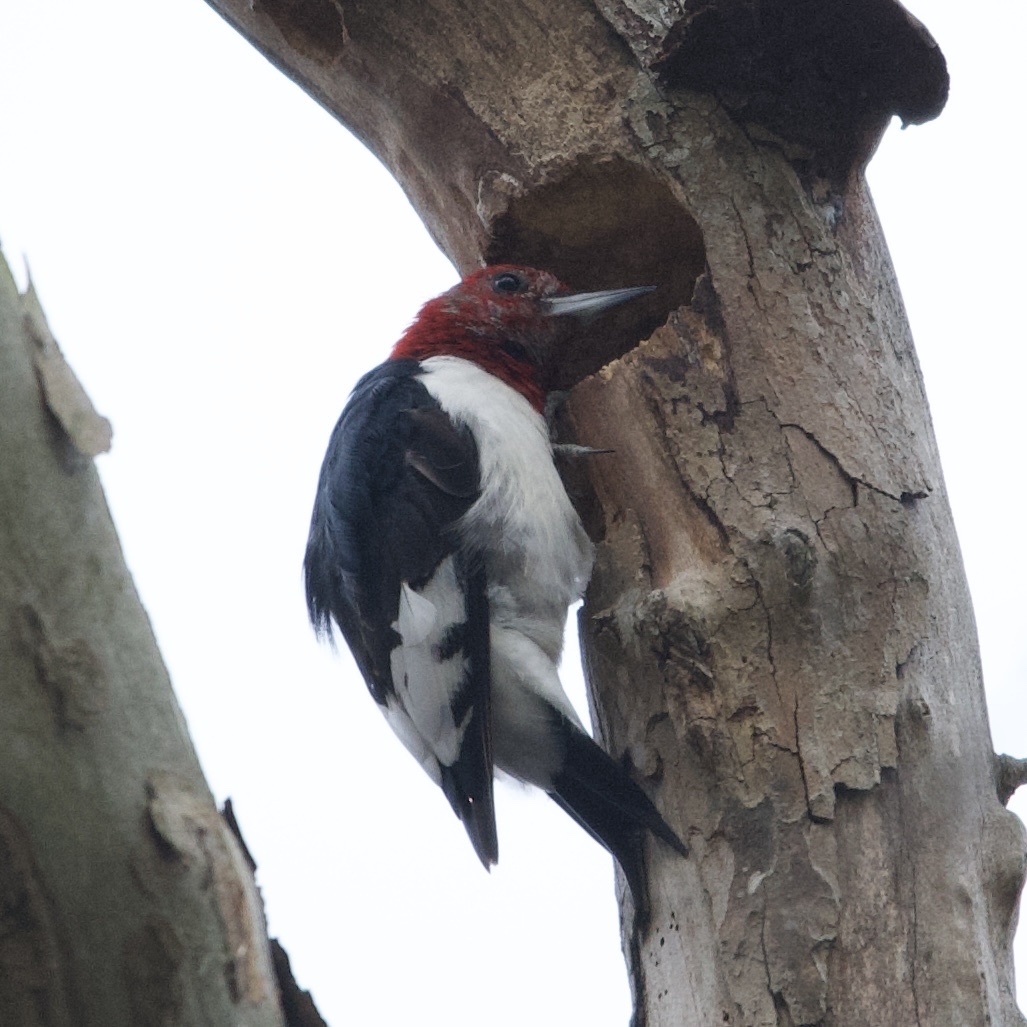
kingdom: Animalia
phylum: Chordata
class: Aves
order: Piciformes
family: Picidae
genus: Melanerpes
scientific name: Melanerpes erythrocephalus
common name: Red-headed woodpecker
